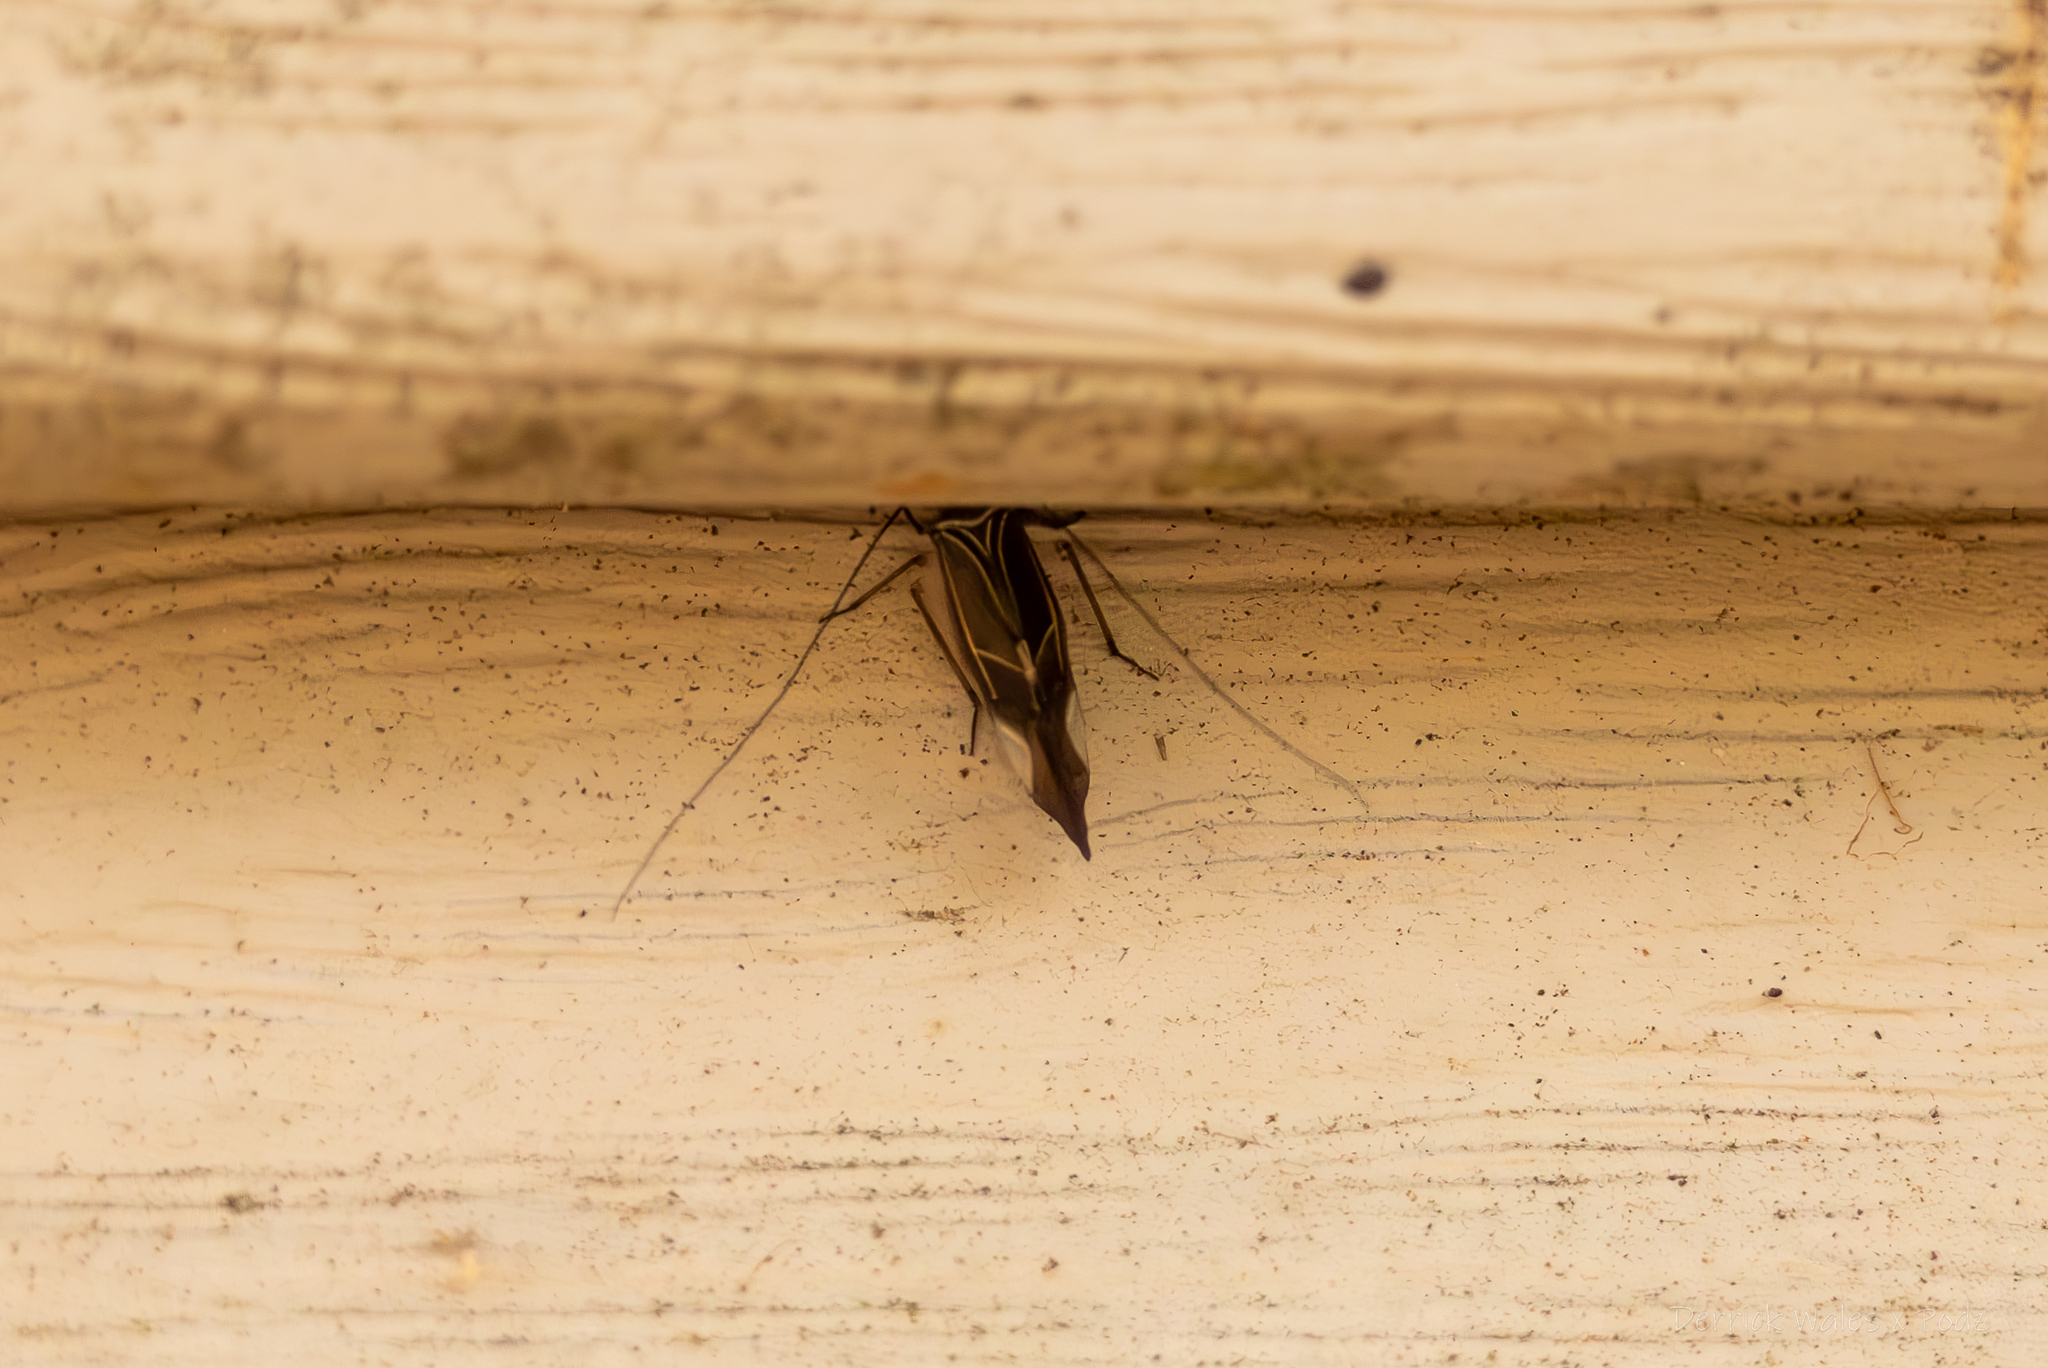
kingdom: Animalia
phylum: Arthropoda
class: Insecta
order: Psocodea
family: Psocidae
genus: Cerastipsocus
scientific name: Cerastipsocus venosus
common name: Tree cattle
